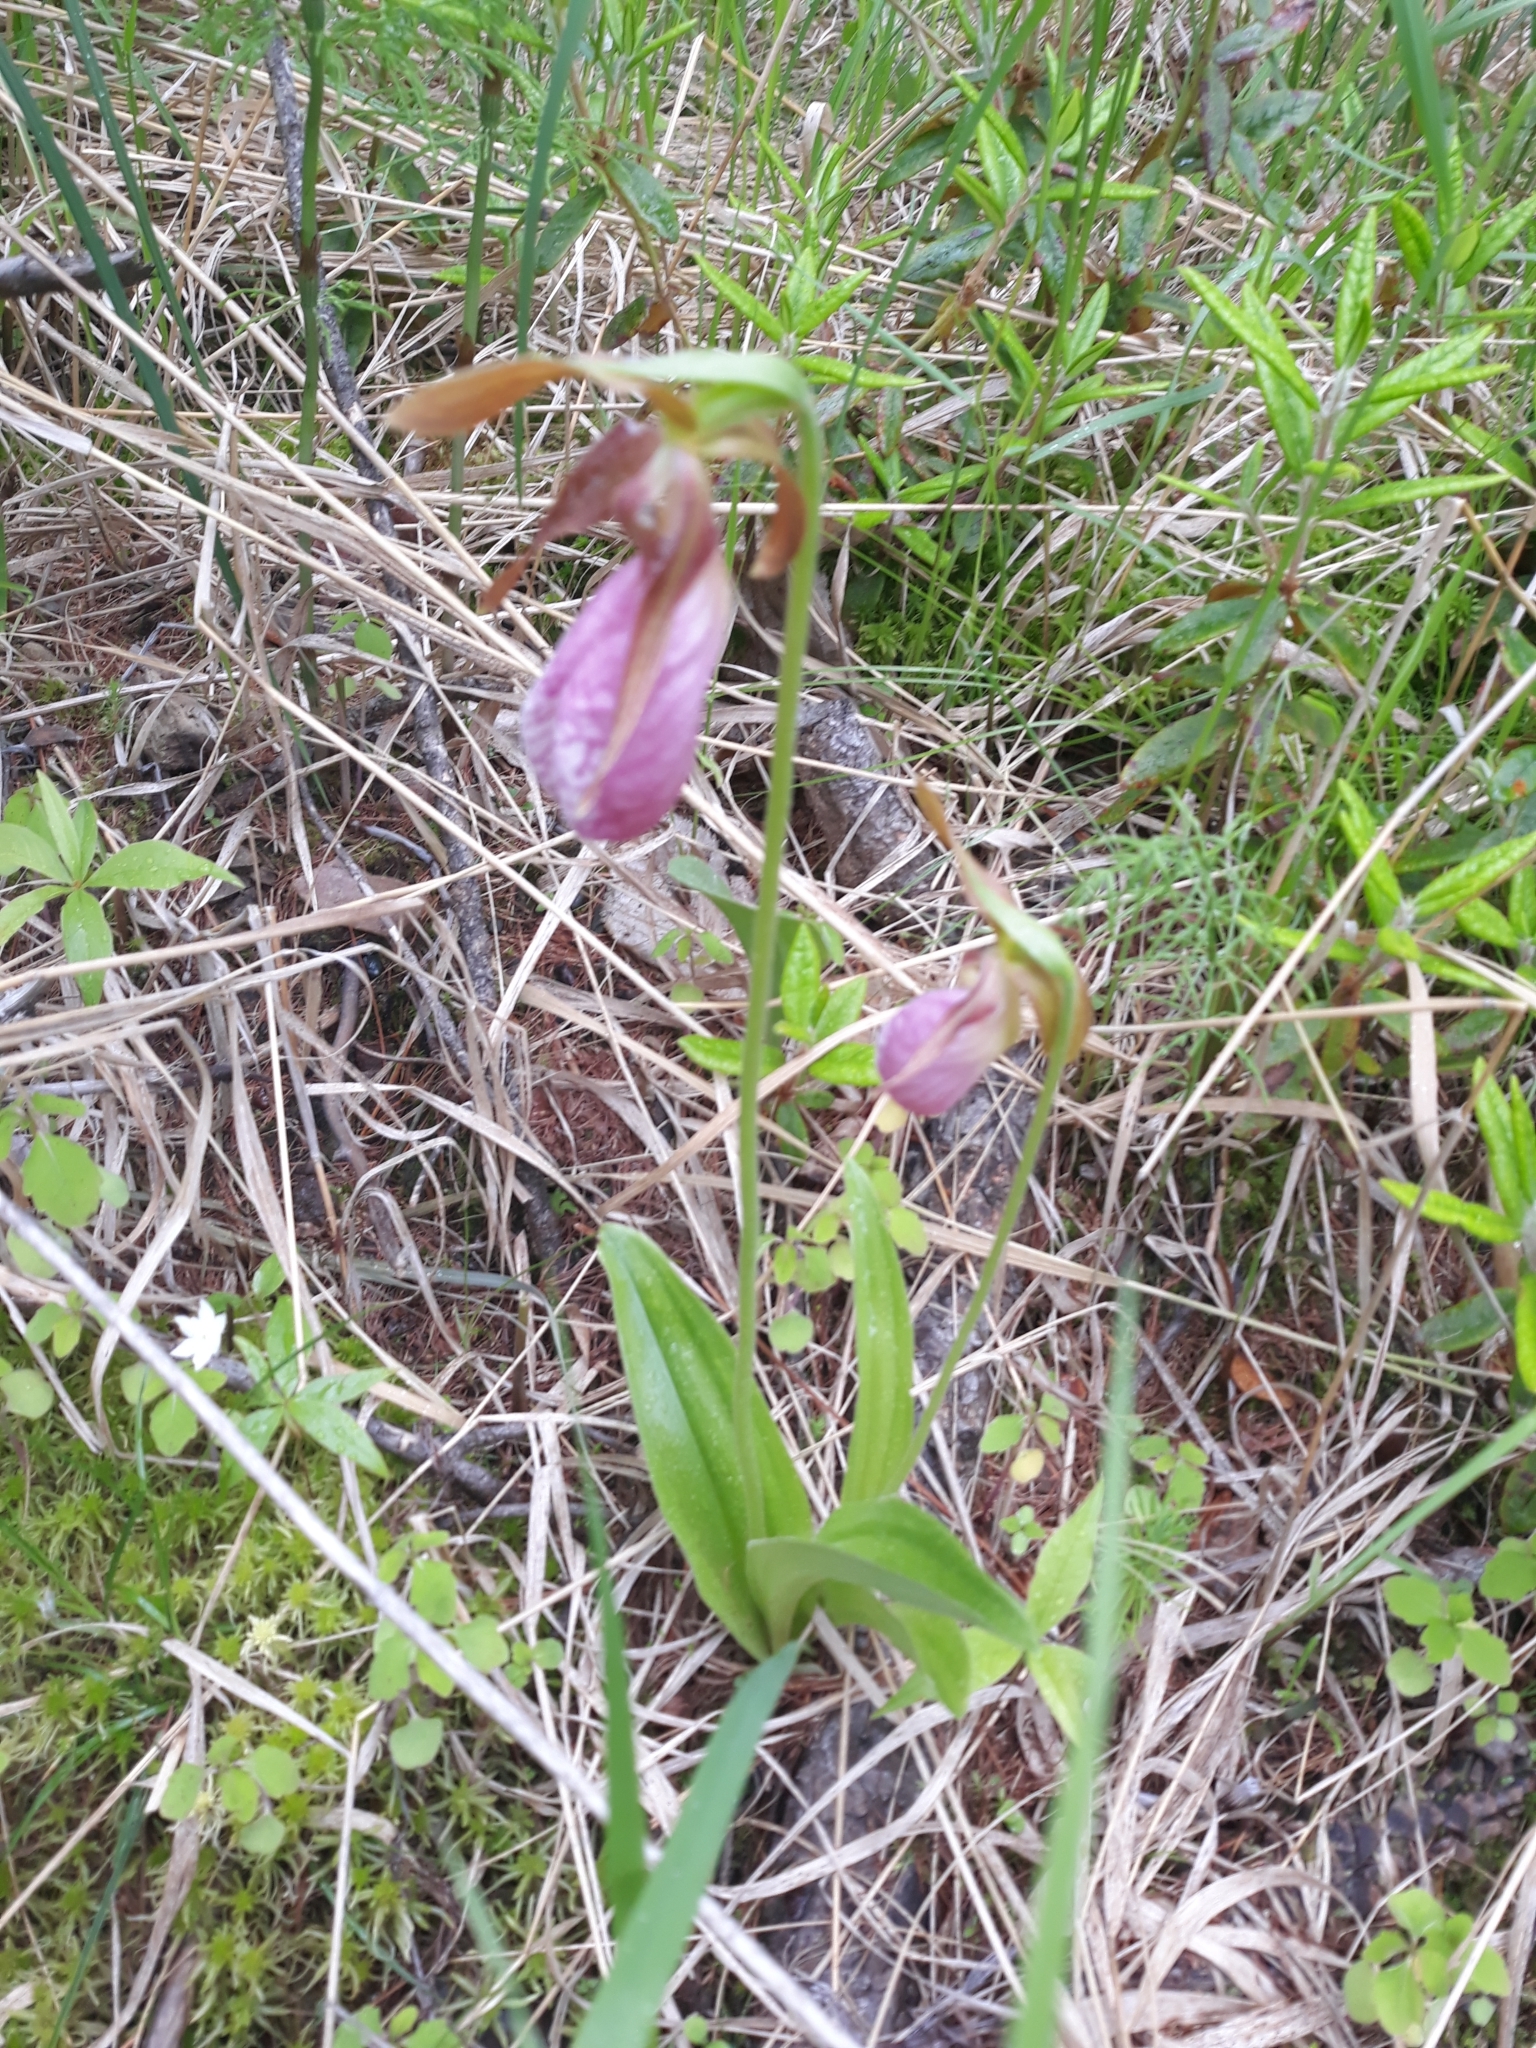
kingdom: Plantae
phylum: Tracheophyta
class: Liliopsida
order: Asparagales
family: Orchidaceae
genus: Cypripedium
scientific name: Cypripedium acaule
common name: Pink lady's-slipper
